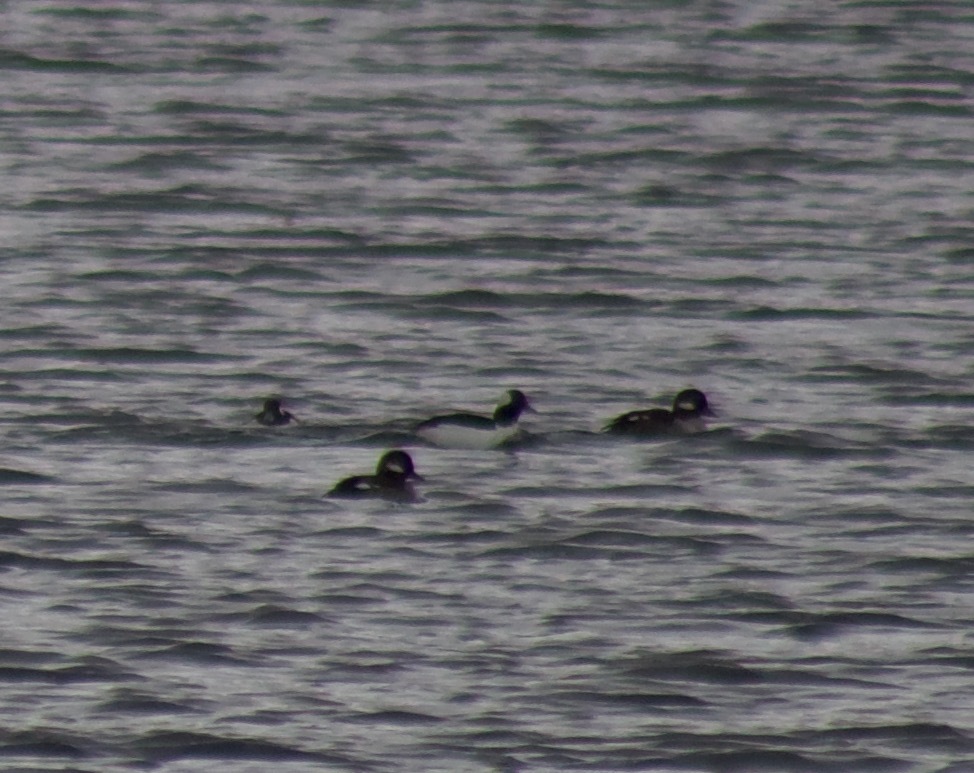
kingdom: Animalia
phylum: Chordata
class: Aves
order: Anseriformes
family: Anatidae
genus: Bucephala
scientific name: Bucephala albeola
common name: Bufflehead
